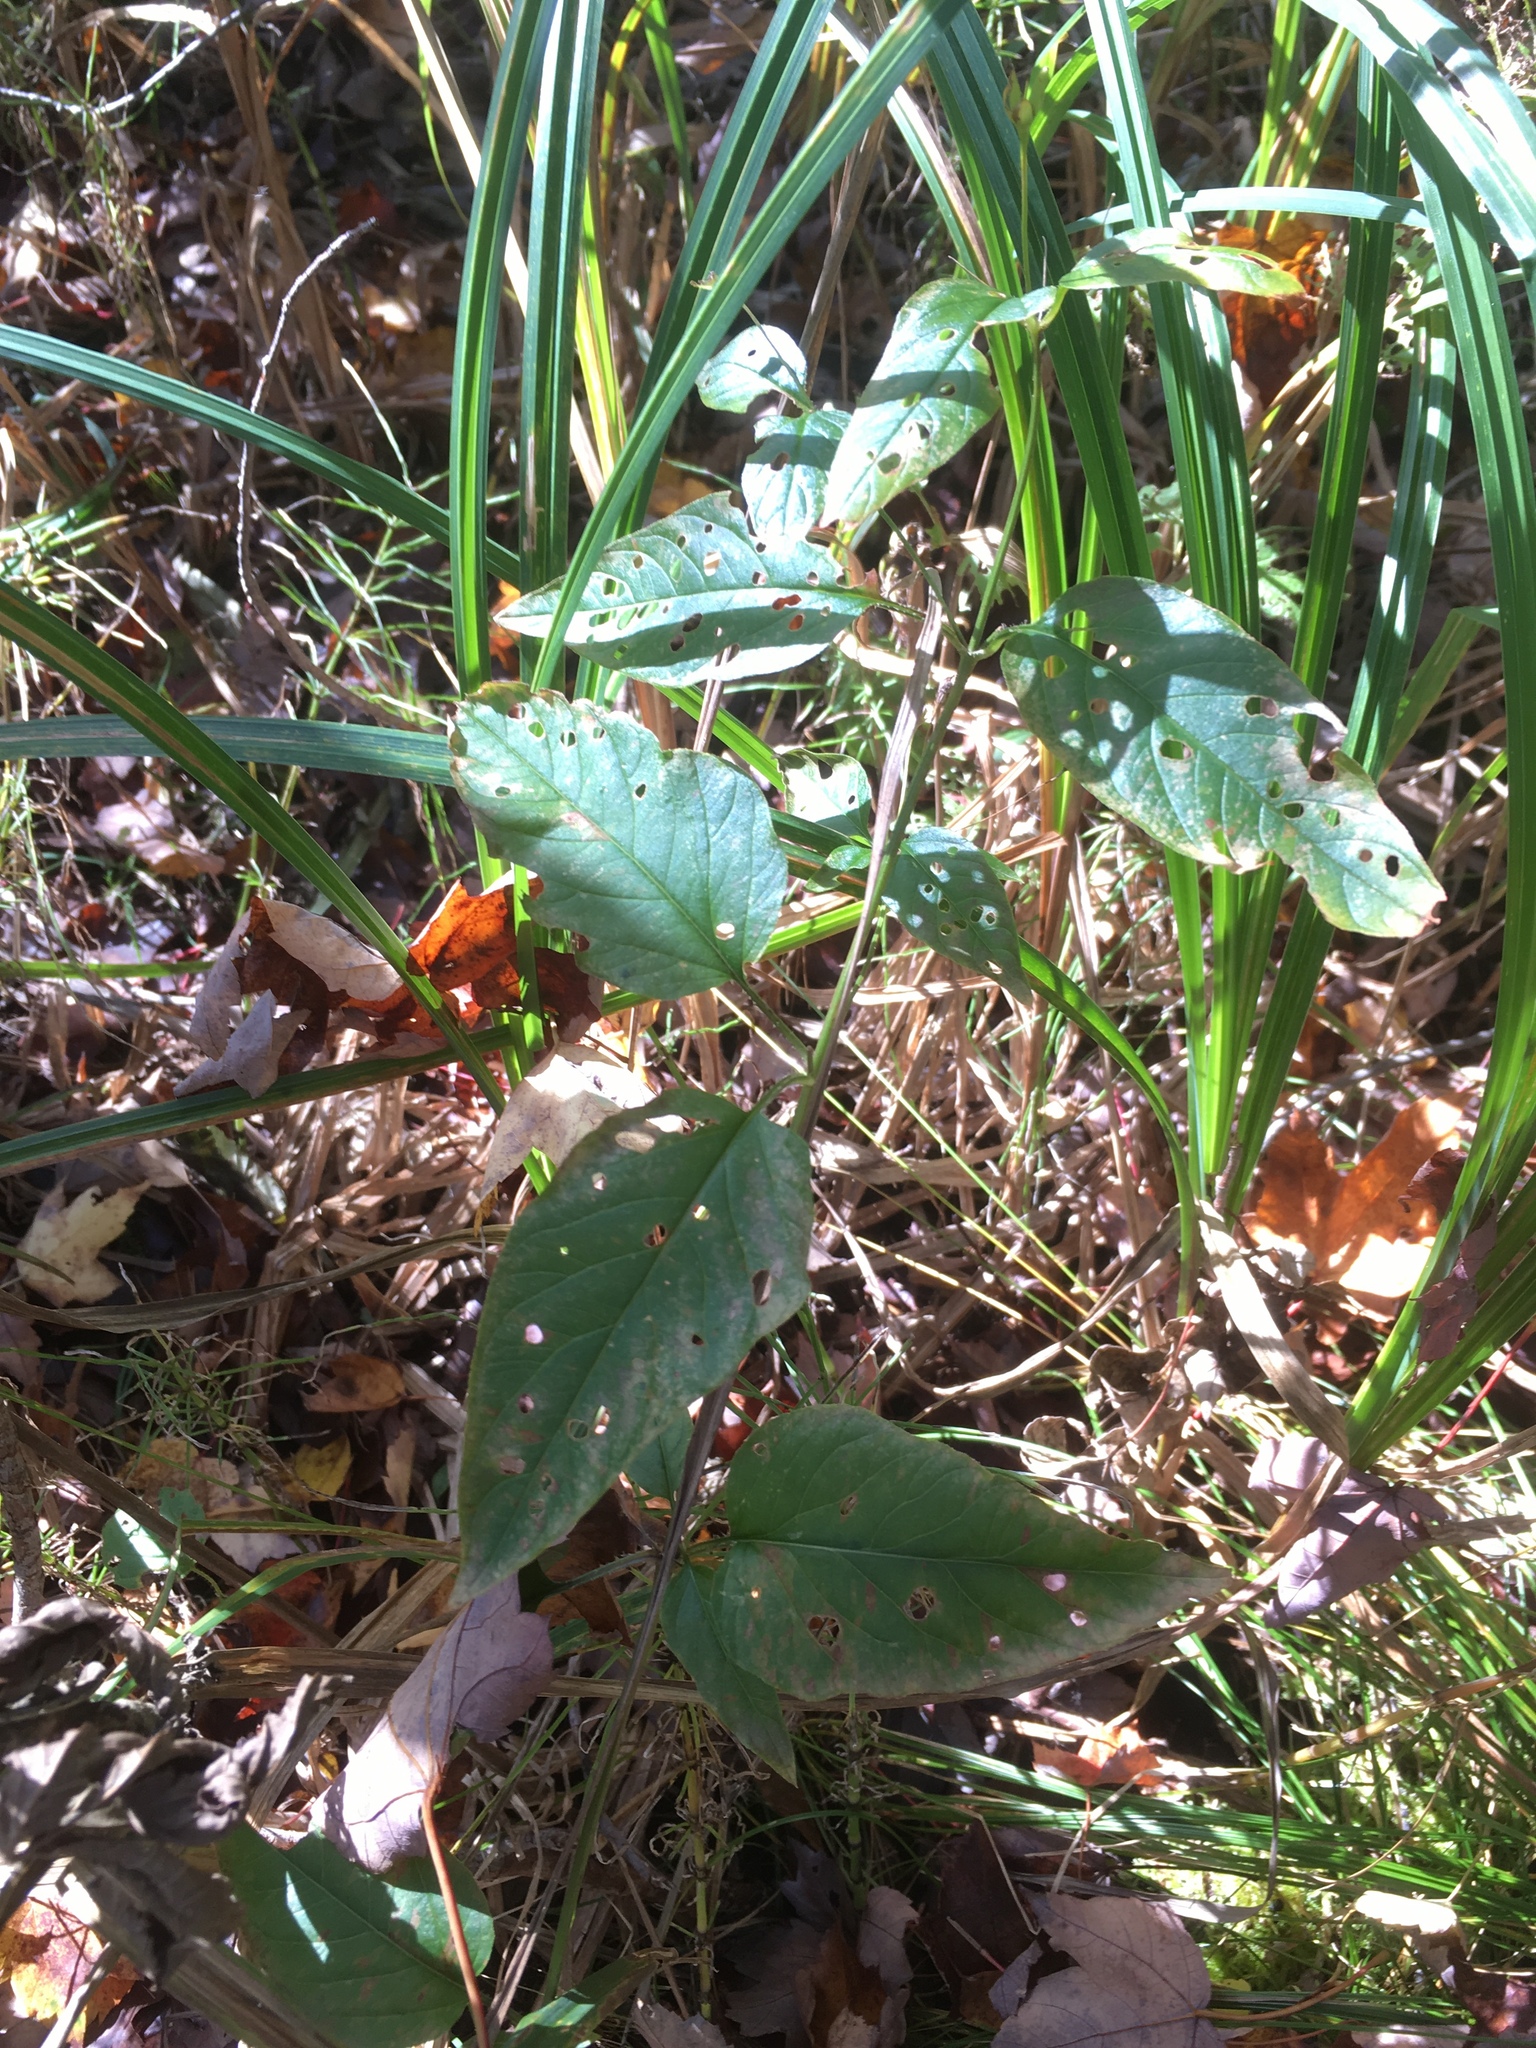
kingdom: Plantae
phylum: Tracheophyta
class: Magnoliopsida
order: Ericales
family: Primulaceae
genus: Lysimachia
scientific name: Lysimachia ciliata
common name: Fringed loosestrife
